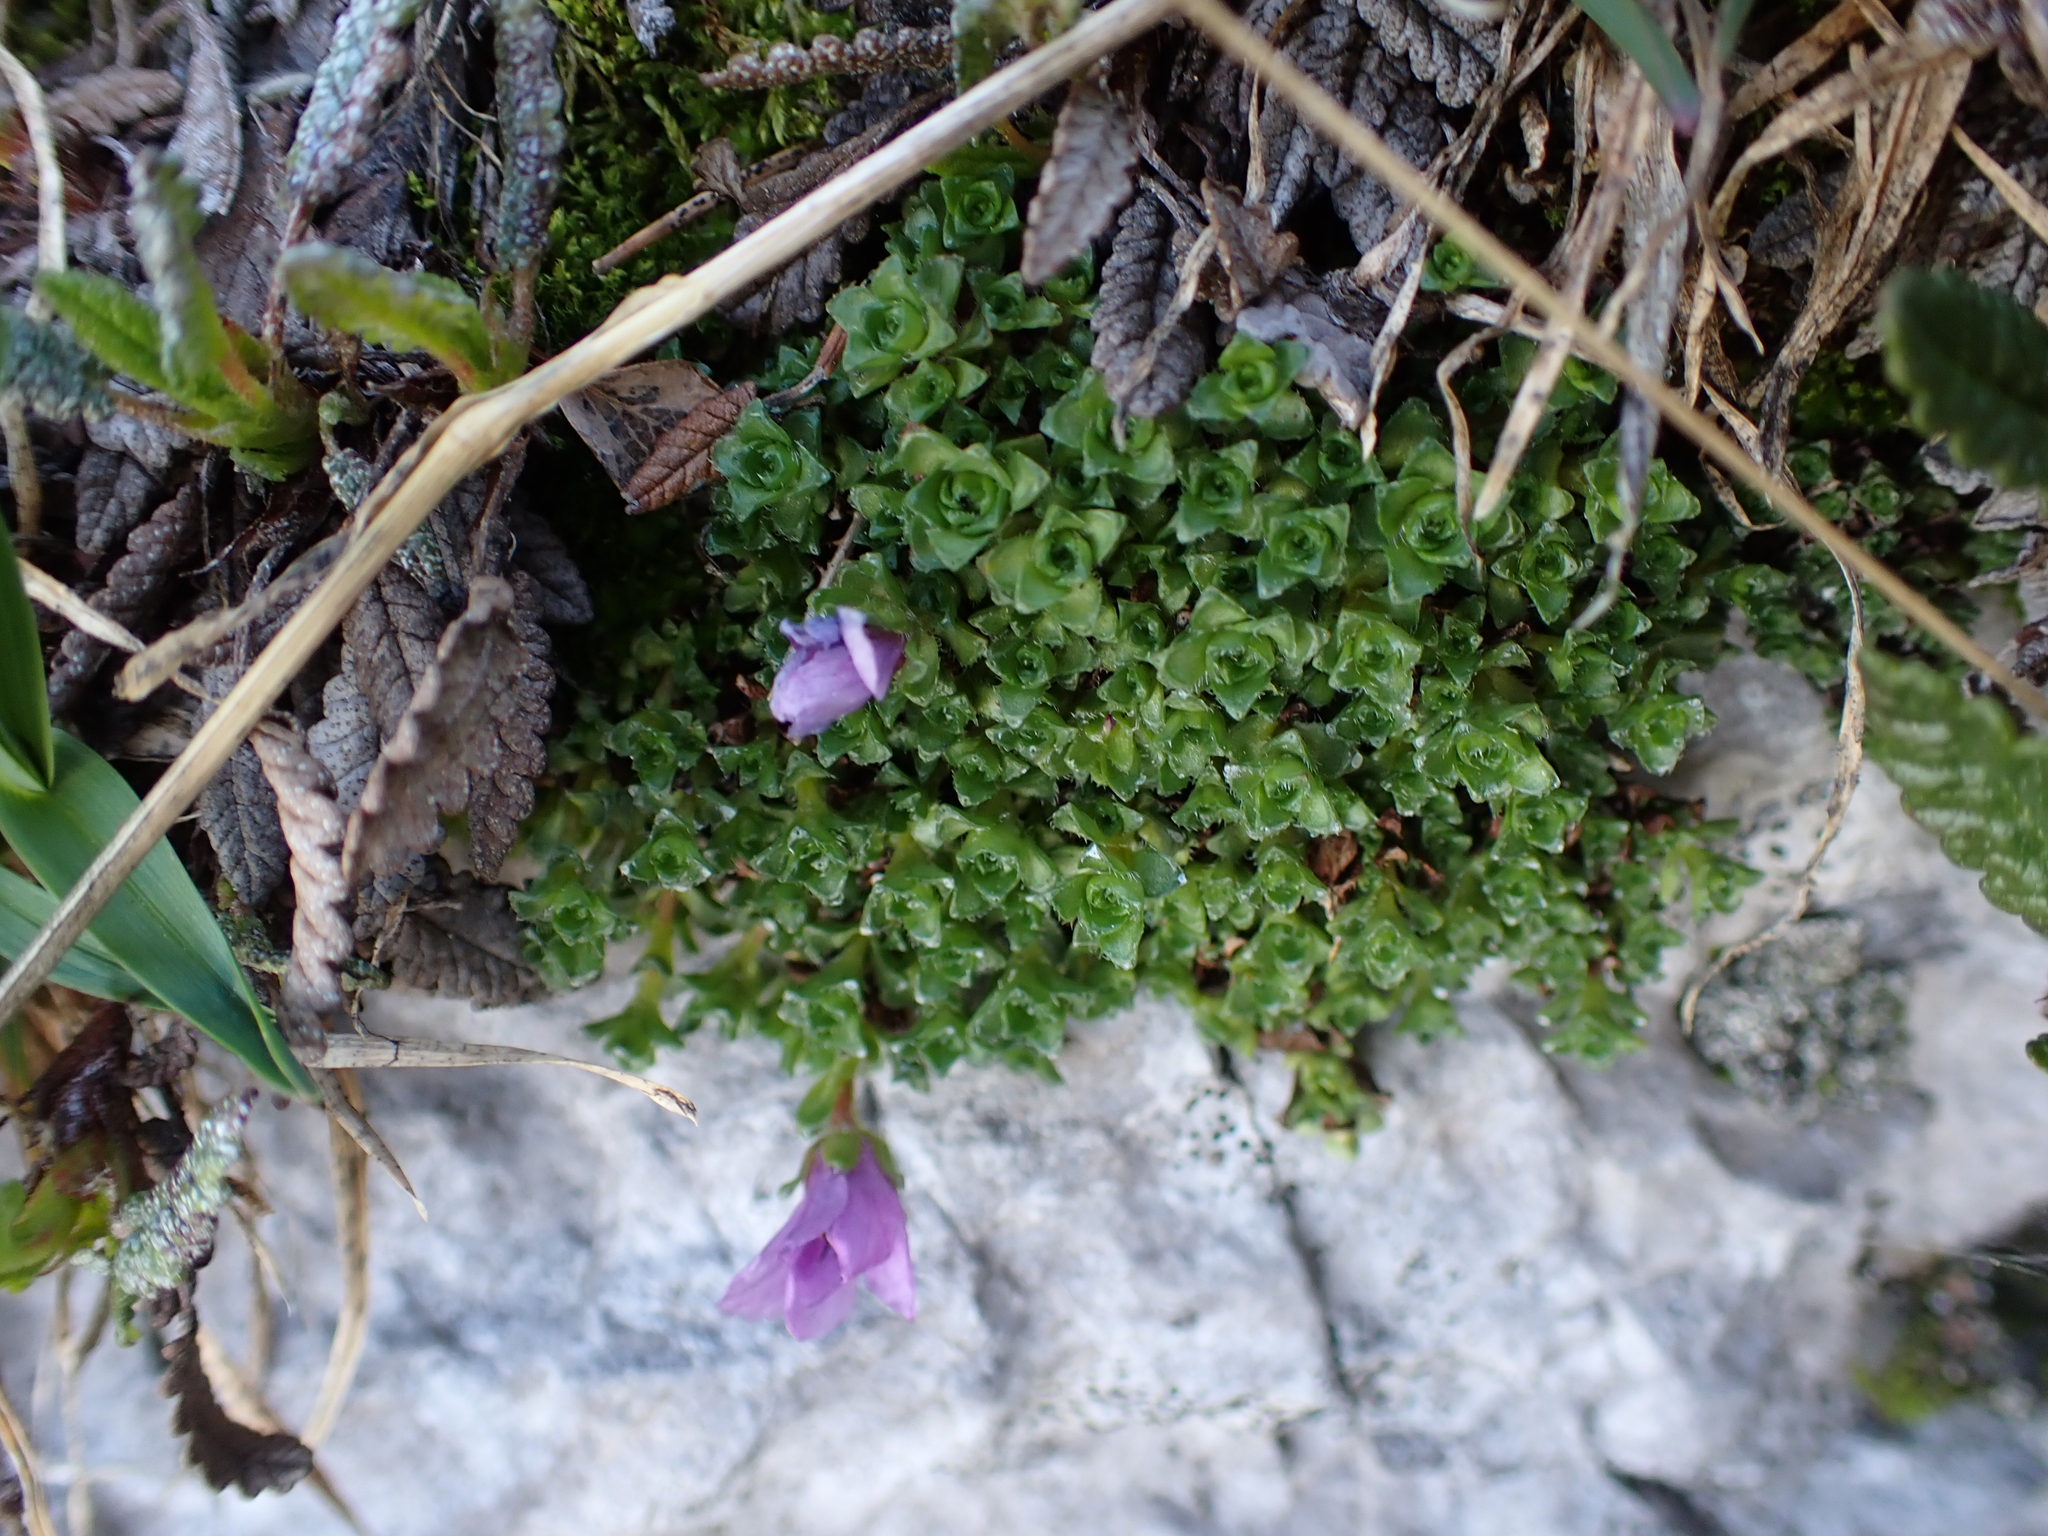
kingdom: Plantae
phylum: Tracheophyta
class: Magnoliopsida
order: Saxifragales
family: Saxifragaceae
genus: Saxifraga
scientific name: Saxifraga oppositifolia
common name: Purple saxifrage
